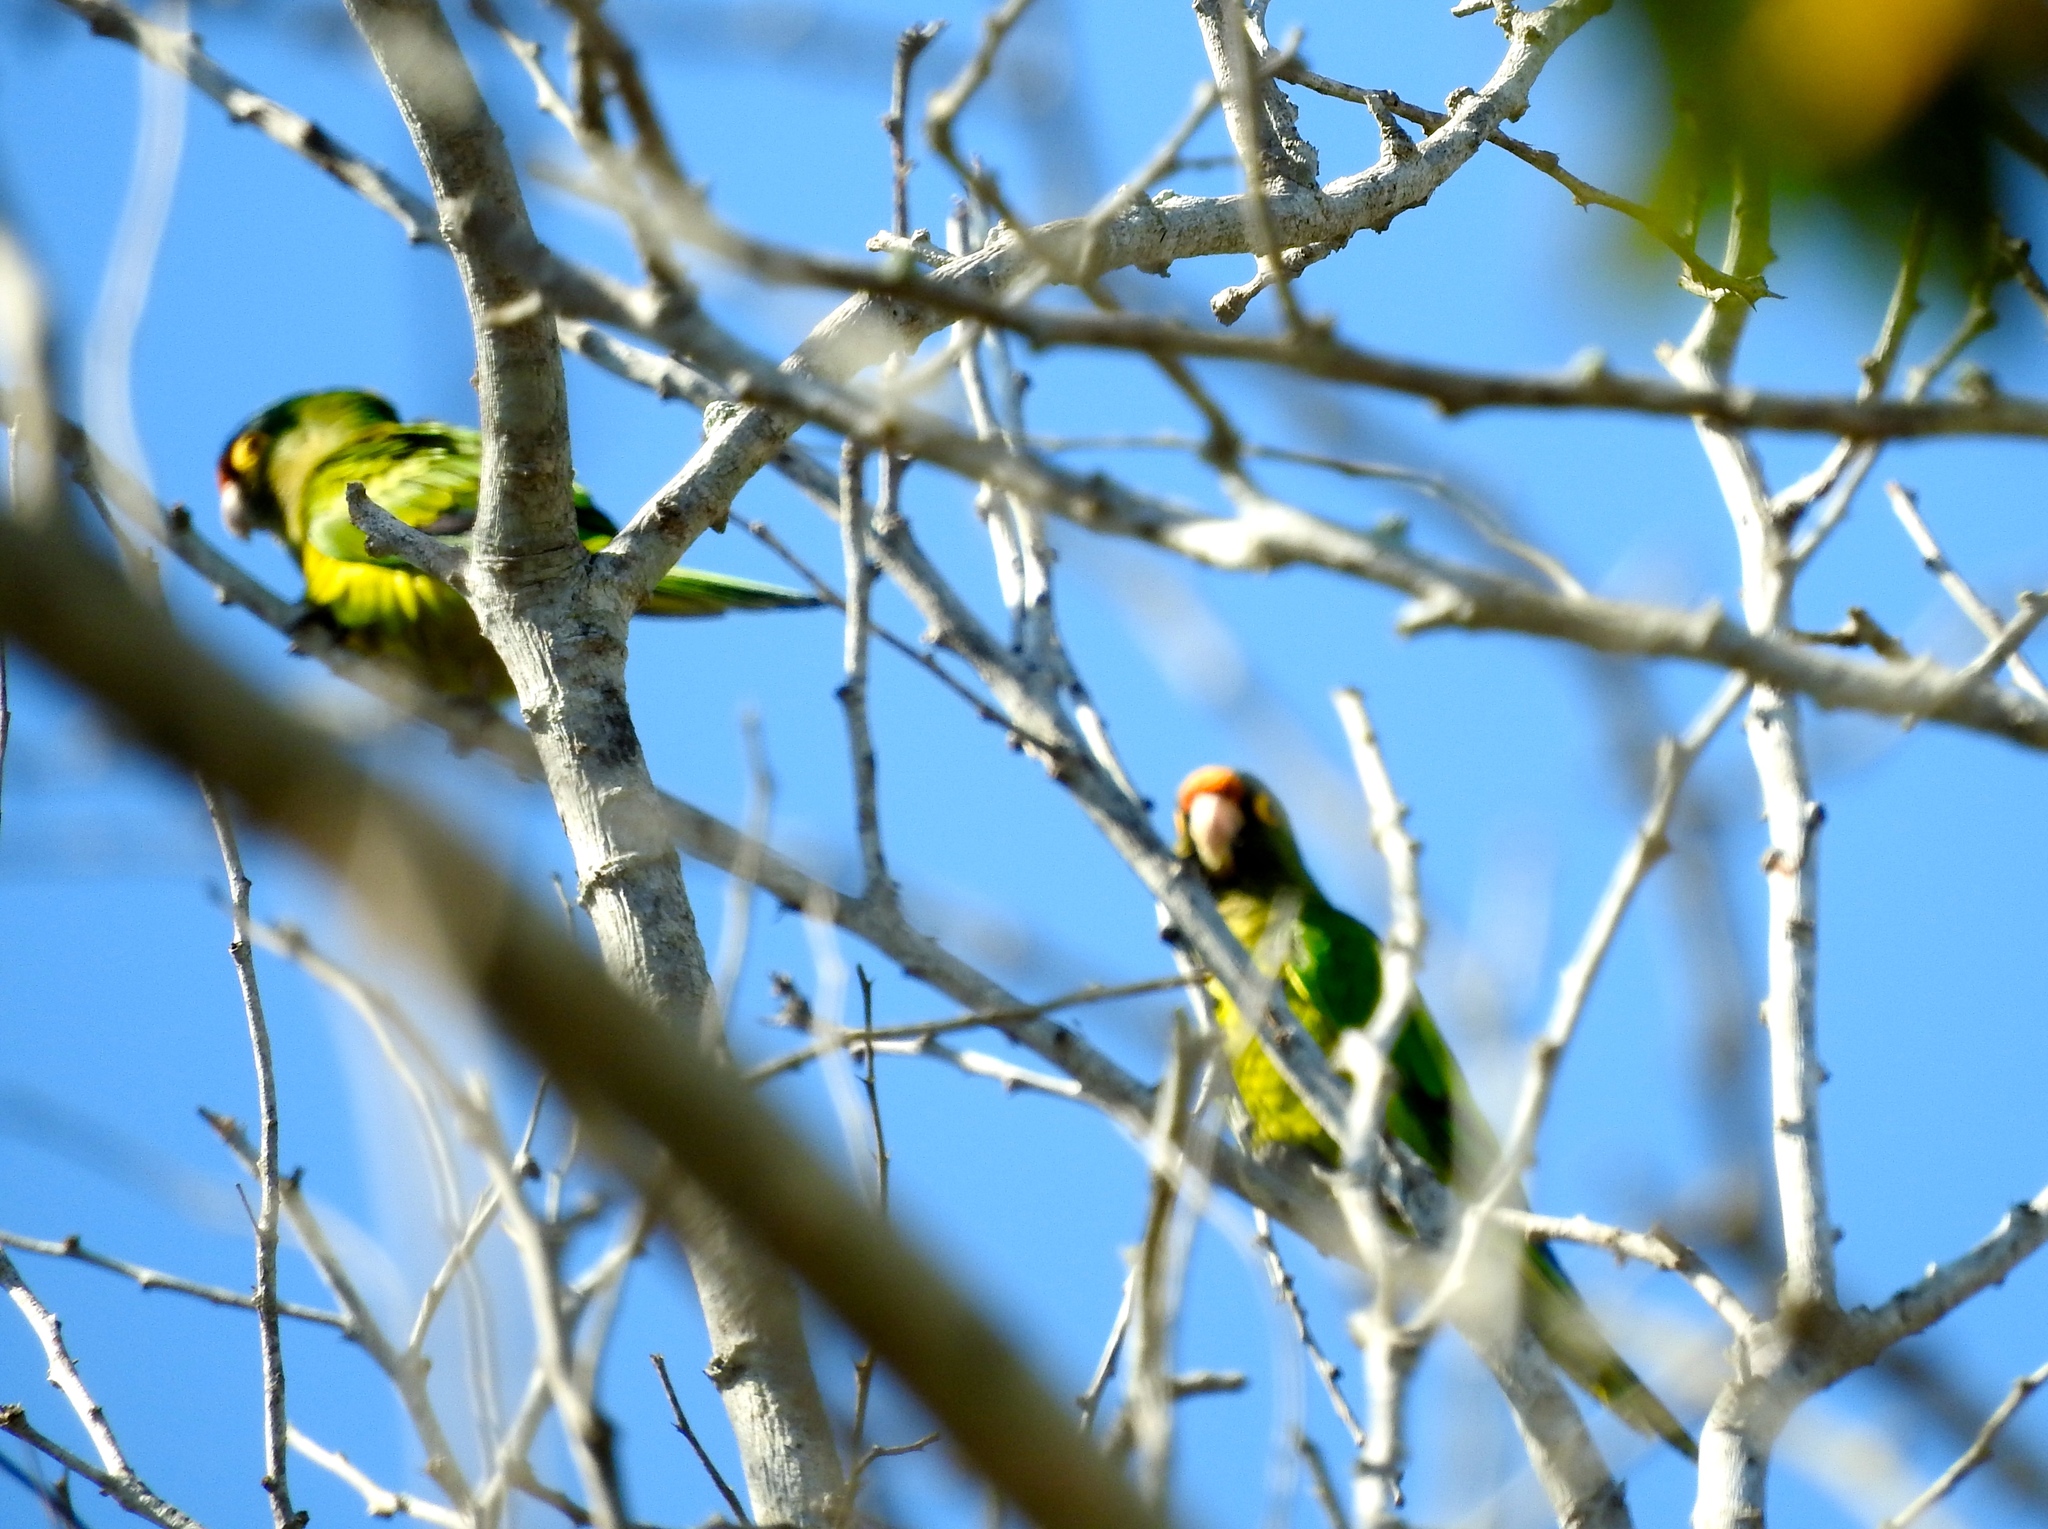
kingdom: Animalia
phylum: Chordata
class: Aves
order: Psittaciformes
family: Psittacidae
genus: Aratinga
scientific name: Aratinga canicularis
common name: Orange-fronted parakeet
